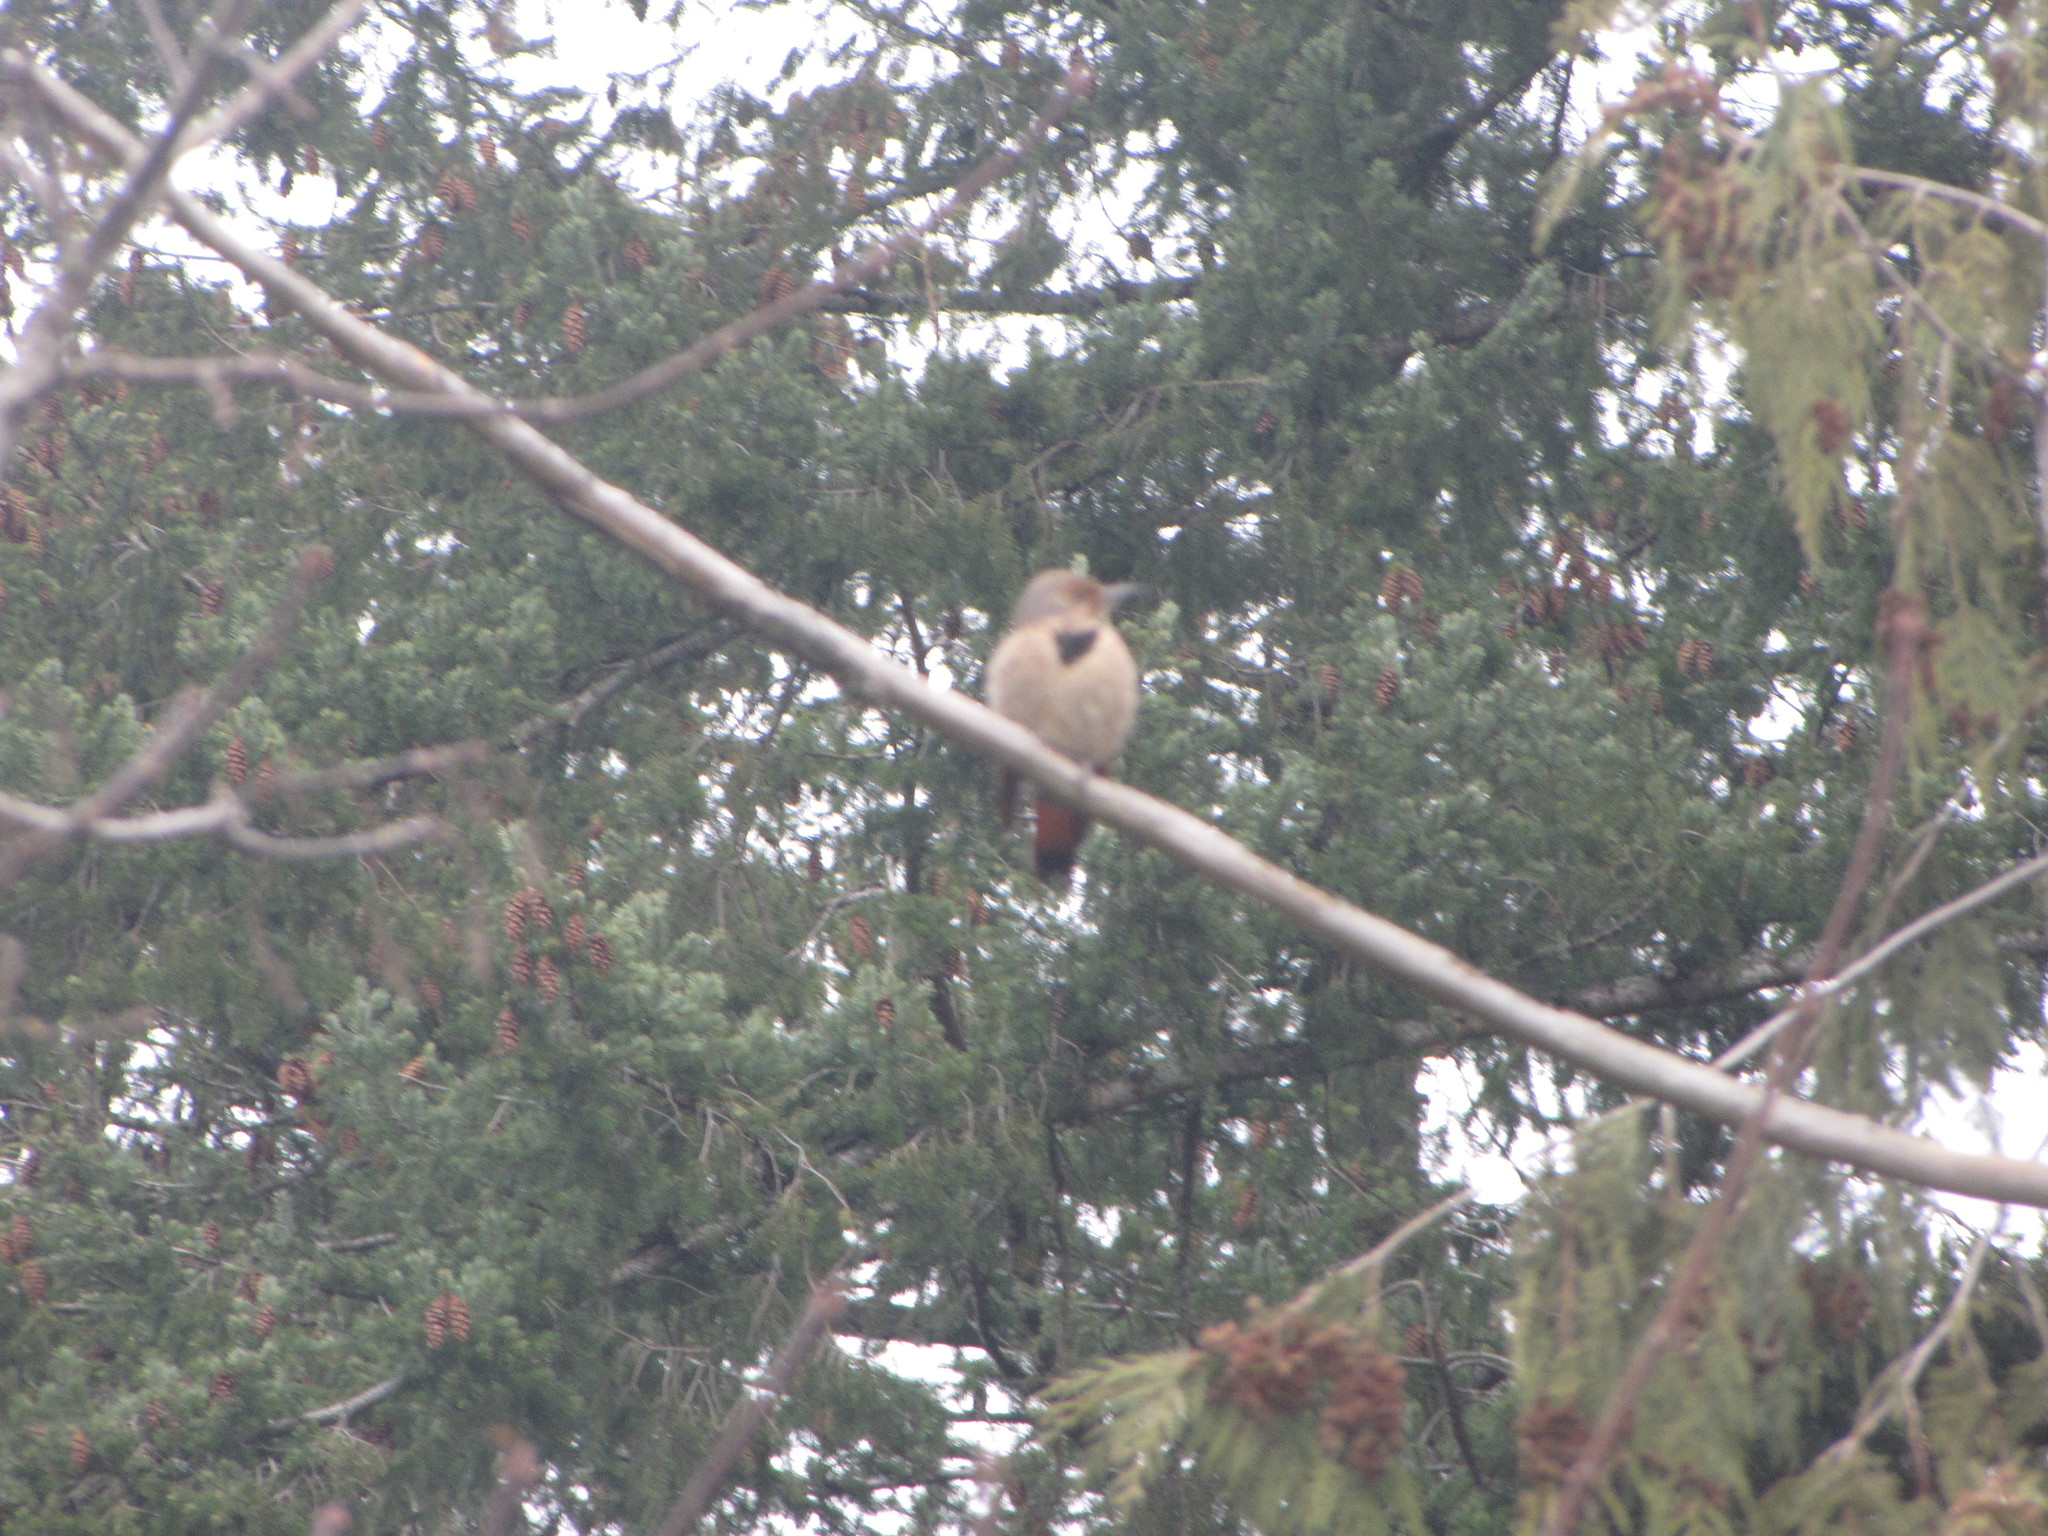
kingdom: Animalia
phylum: Chordata
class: Aves
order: Piciformes
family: Picidae
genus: Colaptes
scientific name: Colaptes auratus
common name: Northern flicker
